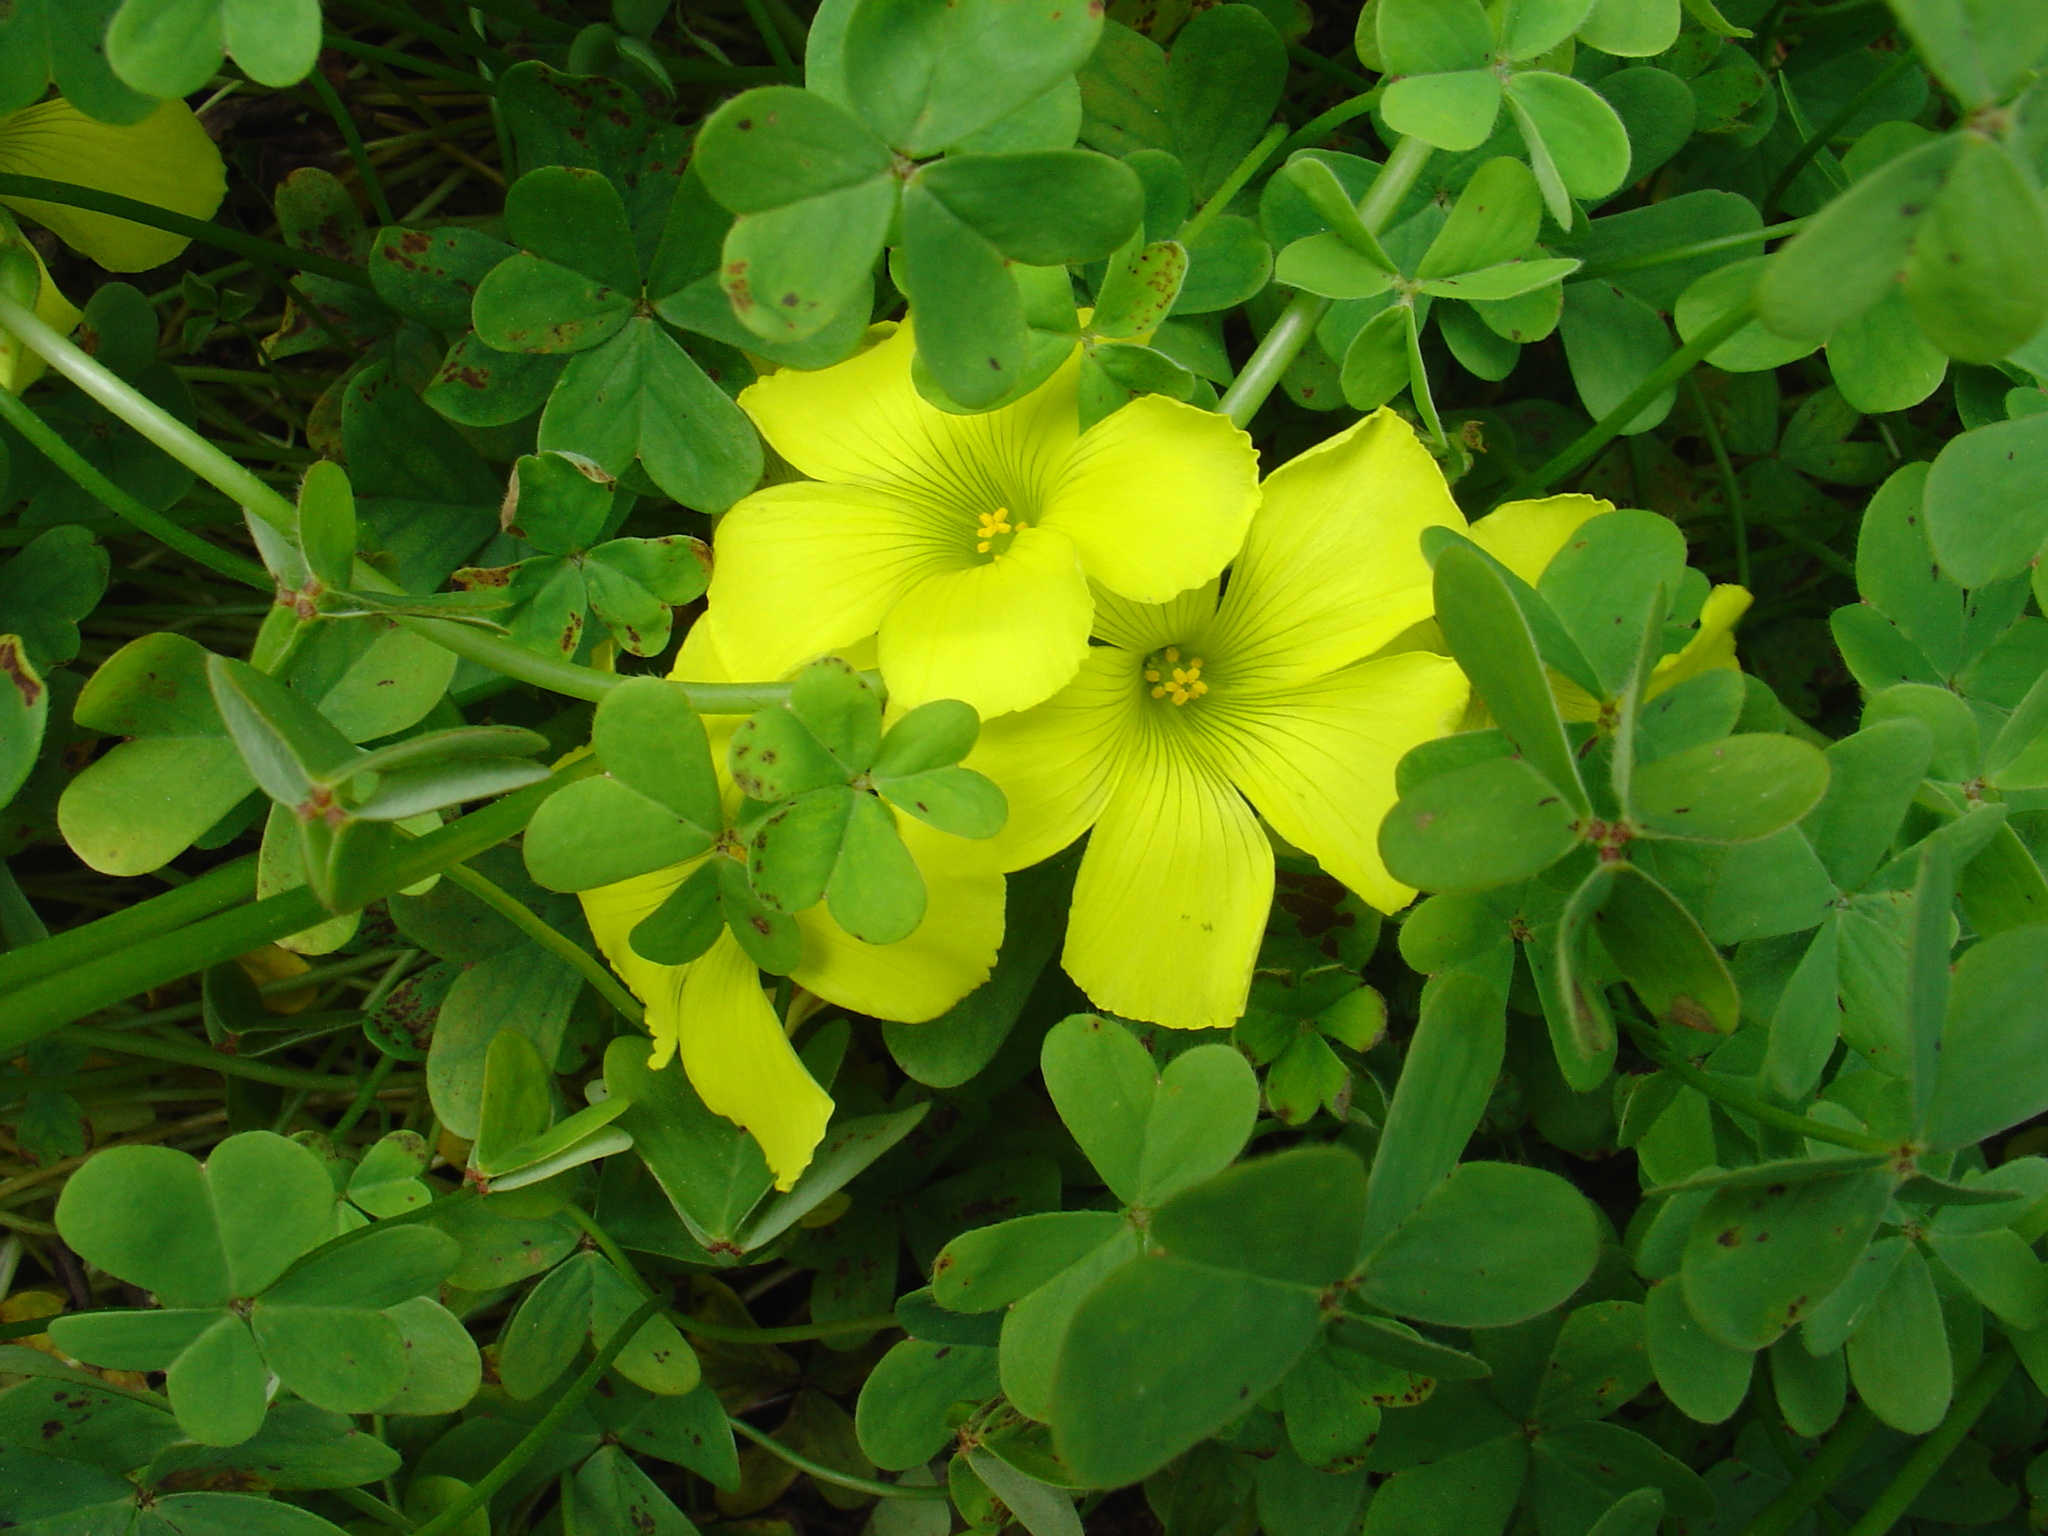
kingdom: Plantae
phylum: Tracheophyta
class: Magnoliopsida
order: Oxalidales
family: Oxalidaceae
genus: Oxalis
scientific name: Oxalis pes-caprae
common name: Bermuda-buttercup
